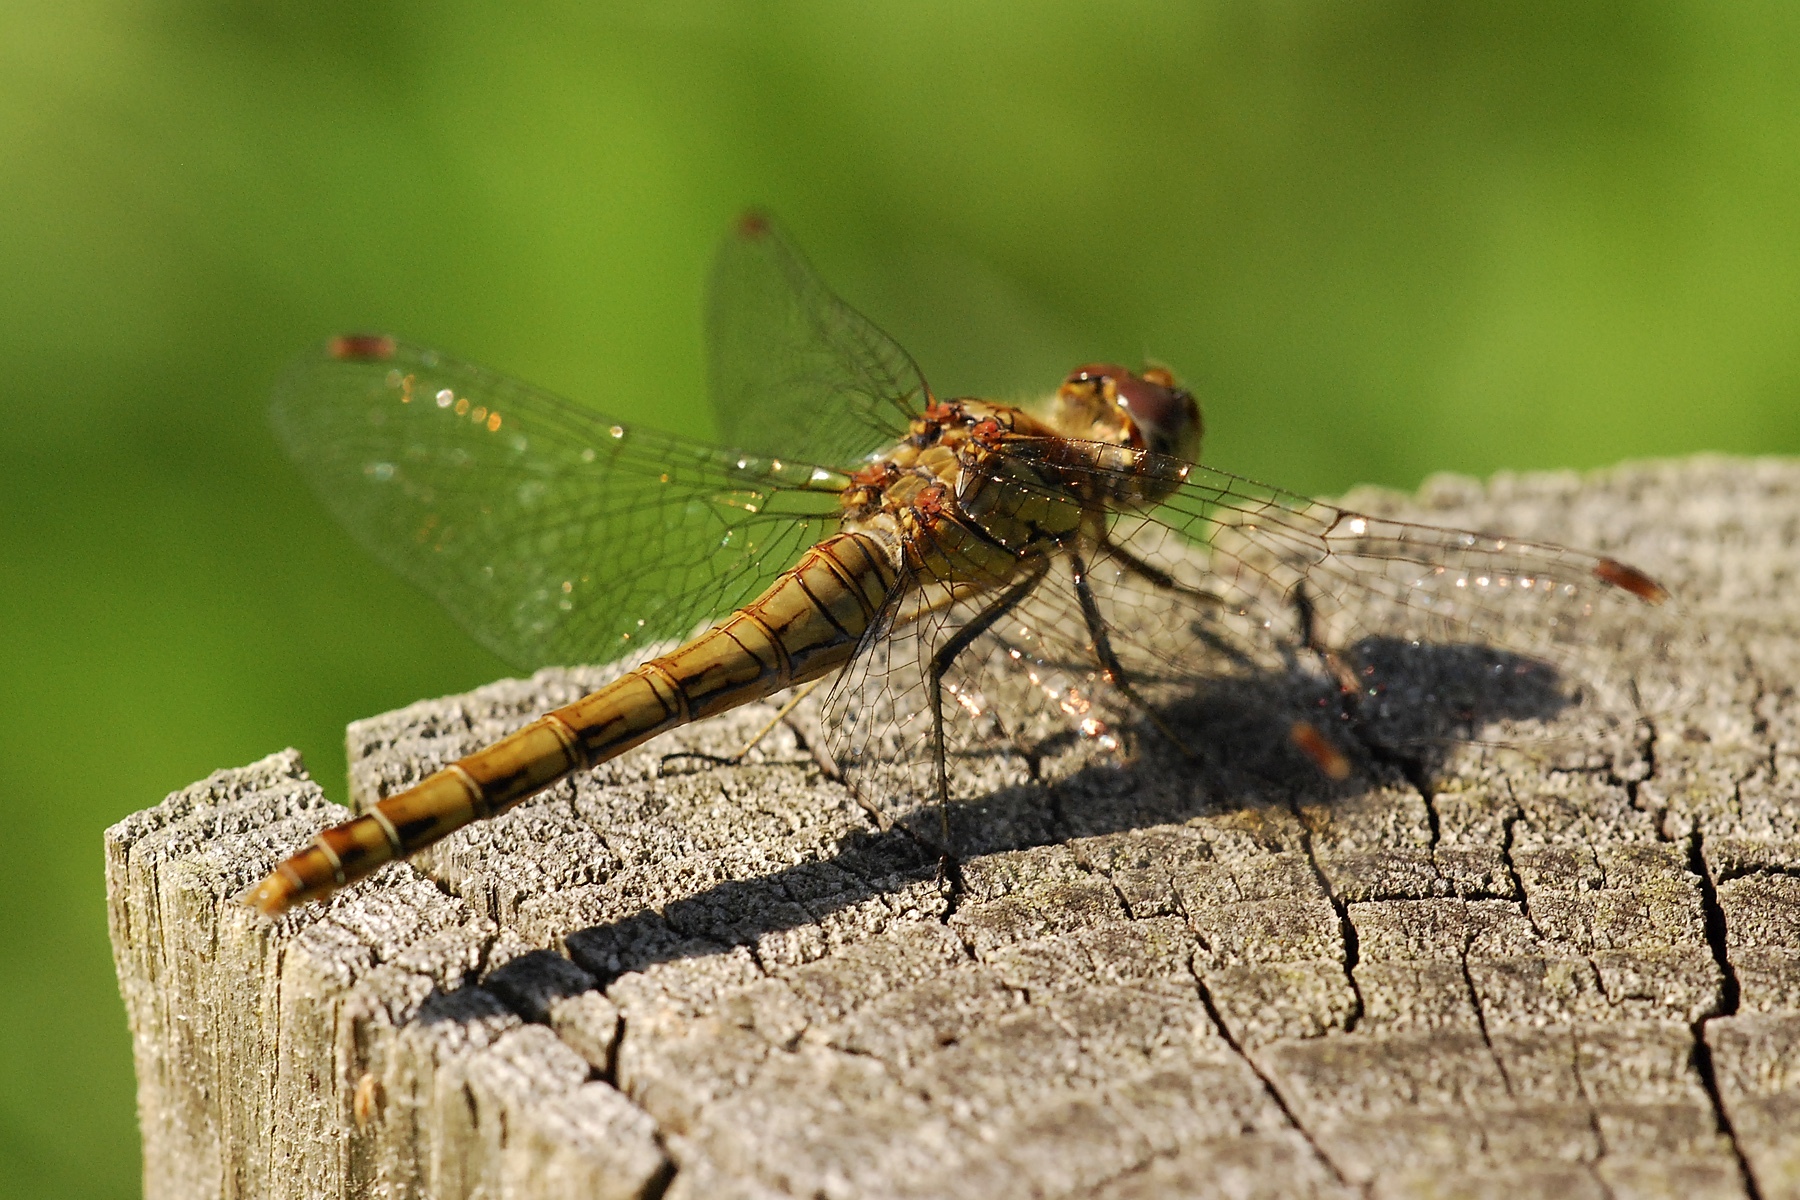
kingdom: Animalia
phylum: Arthropoda
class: Insecta
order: Odonata
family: Libellulidae
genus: Sympetrum
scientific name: Sympetrum striolatum
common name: Common darter
